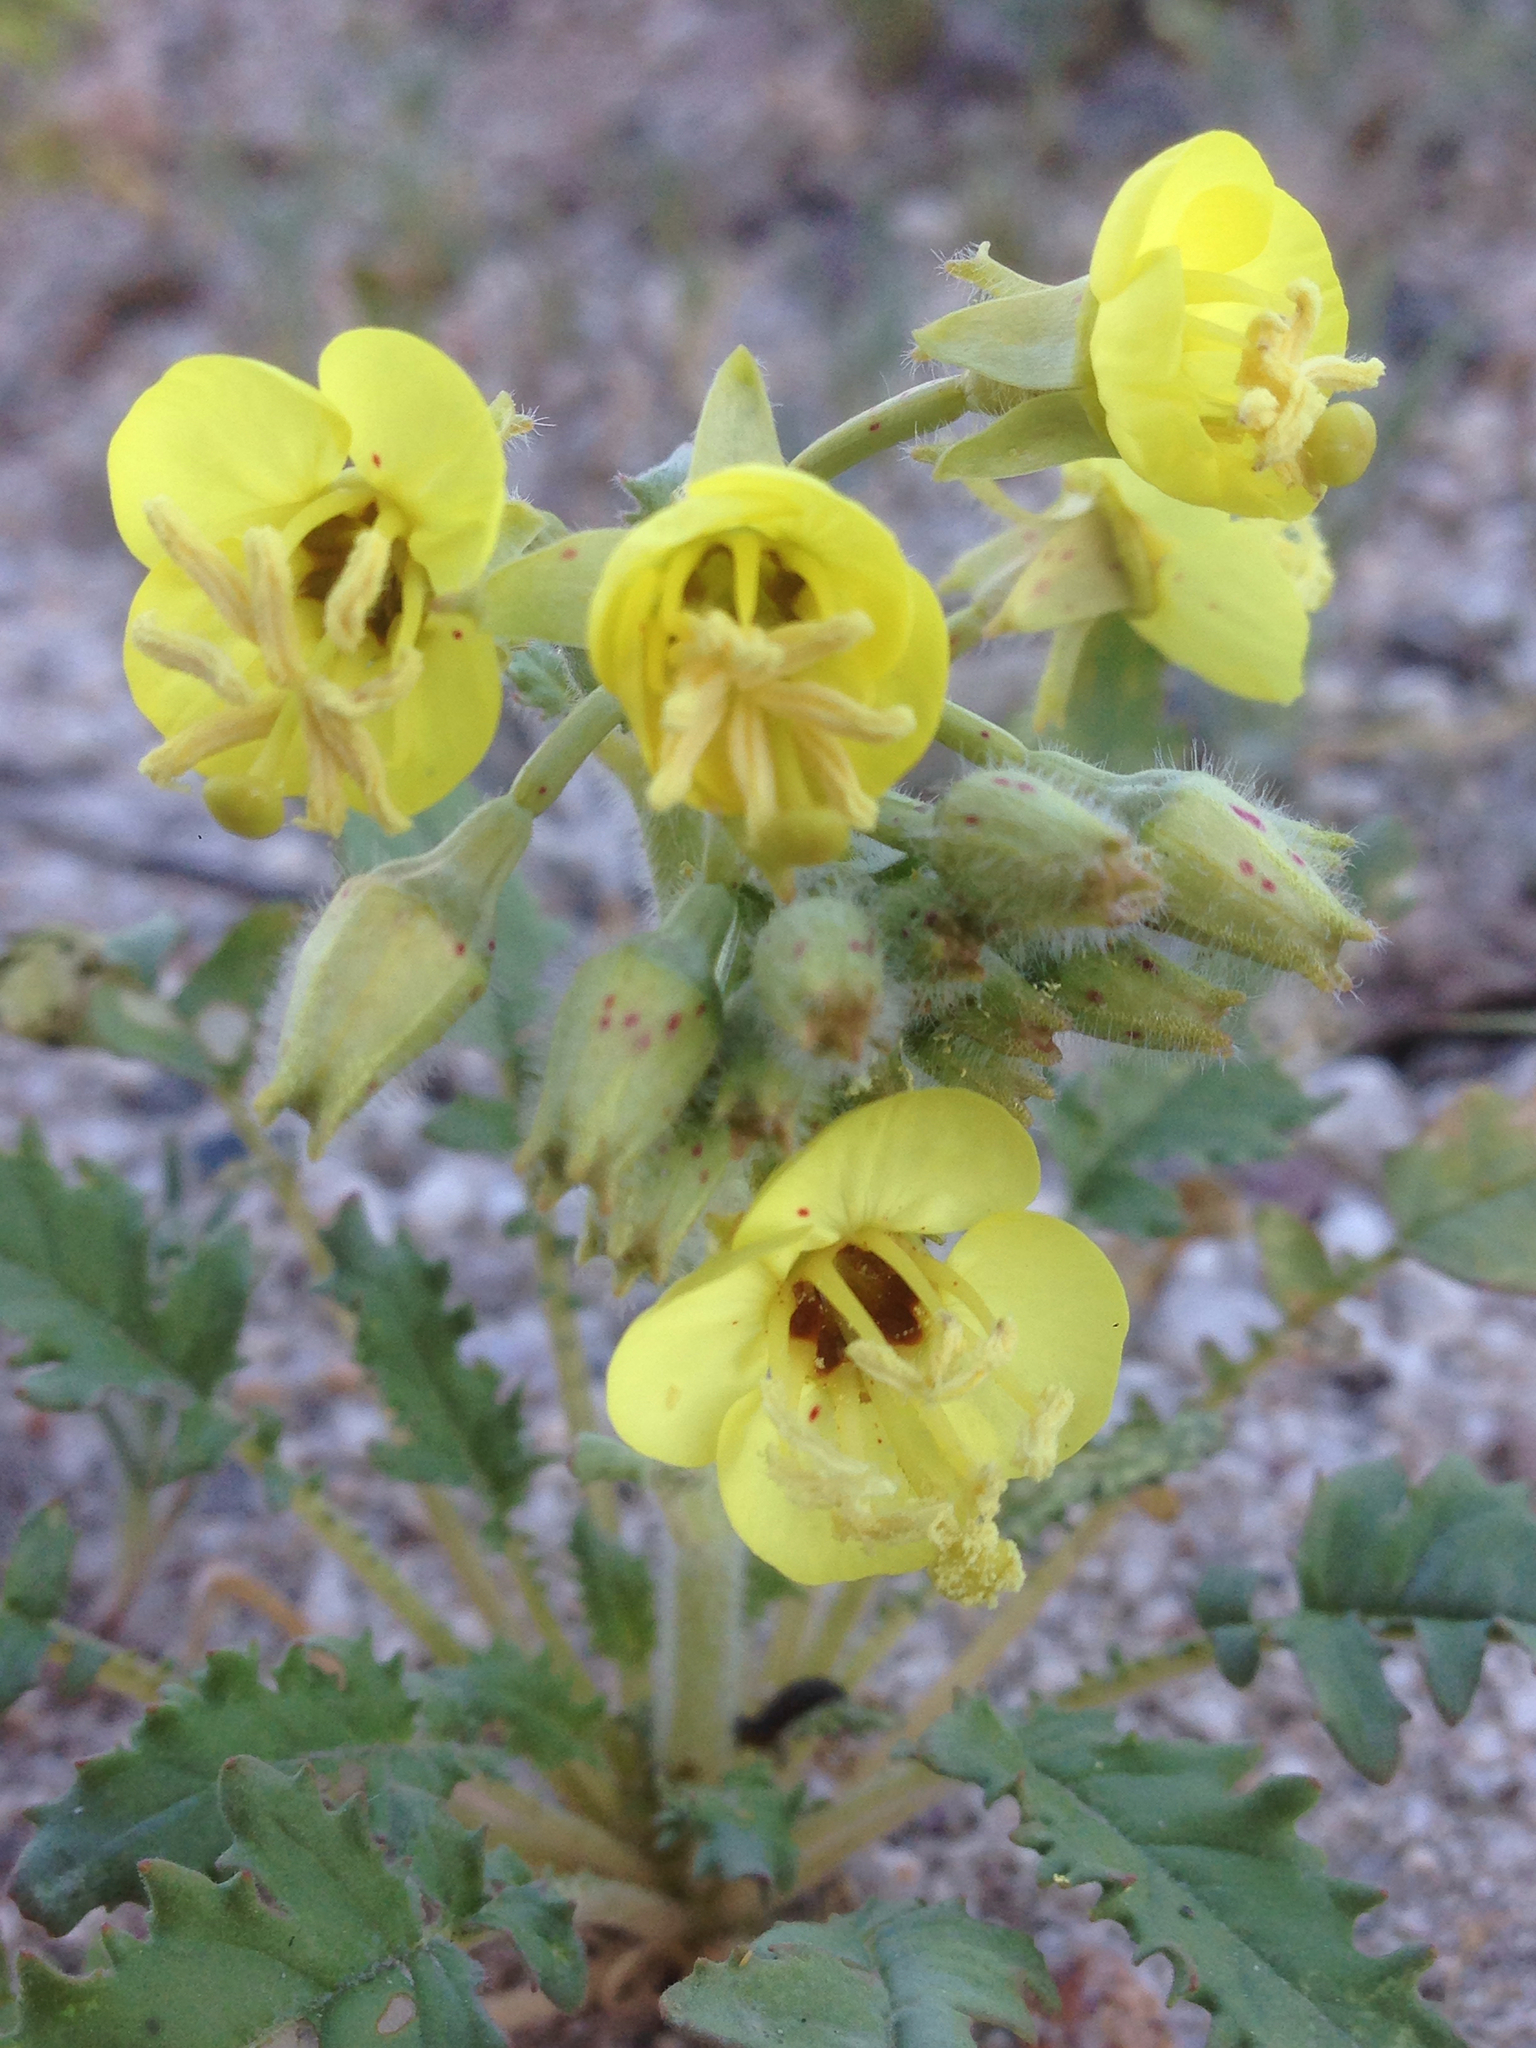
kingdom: Plantae
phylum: Tracheophyta
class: Magnoliopsida
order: Myrtales
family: Onagraceae
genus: Chylismia
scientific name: Chylismia claviformis
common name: Browneyes
